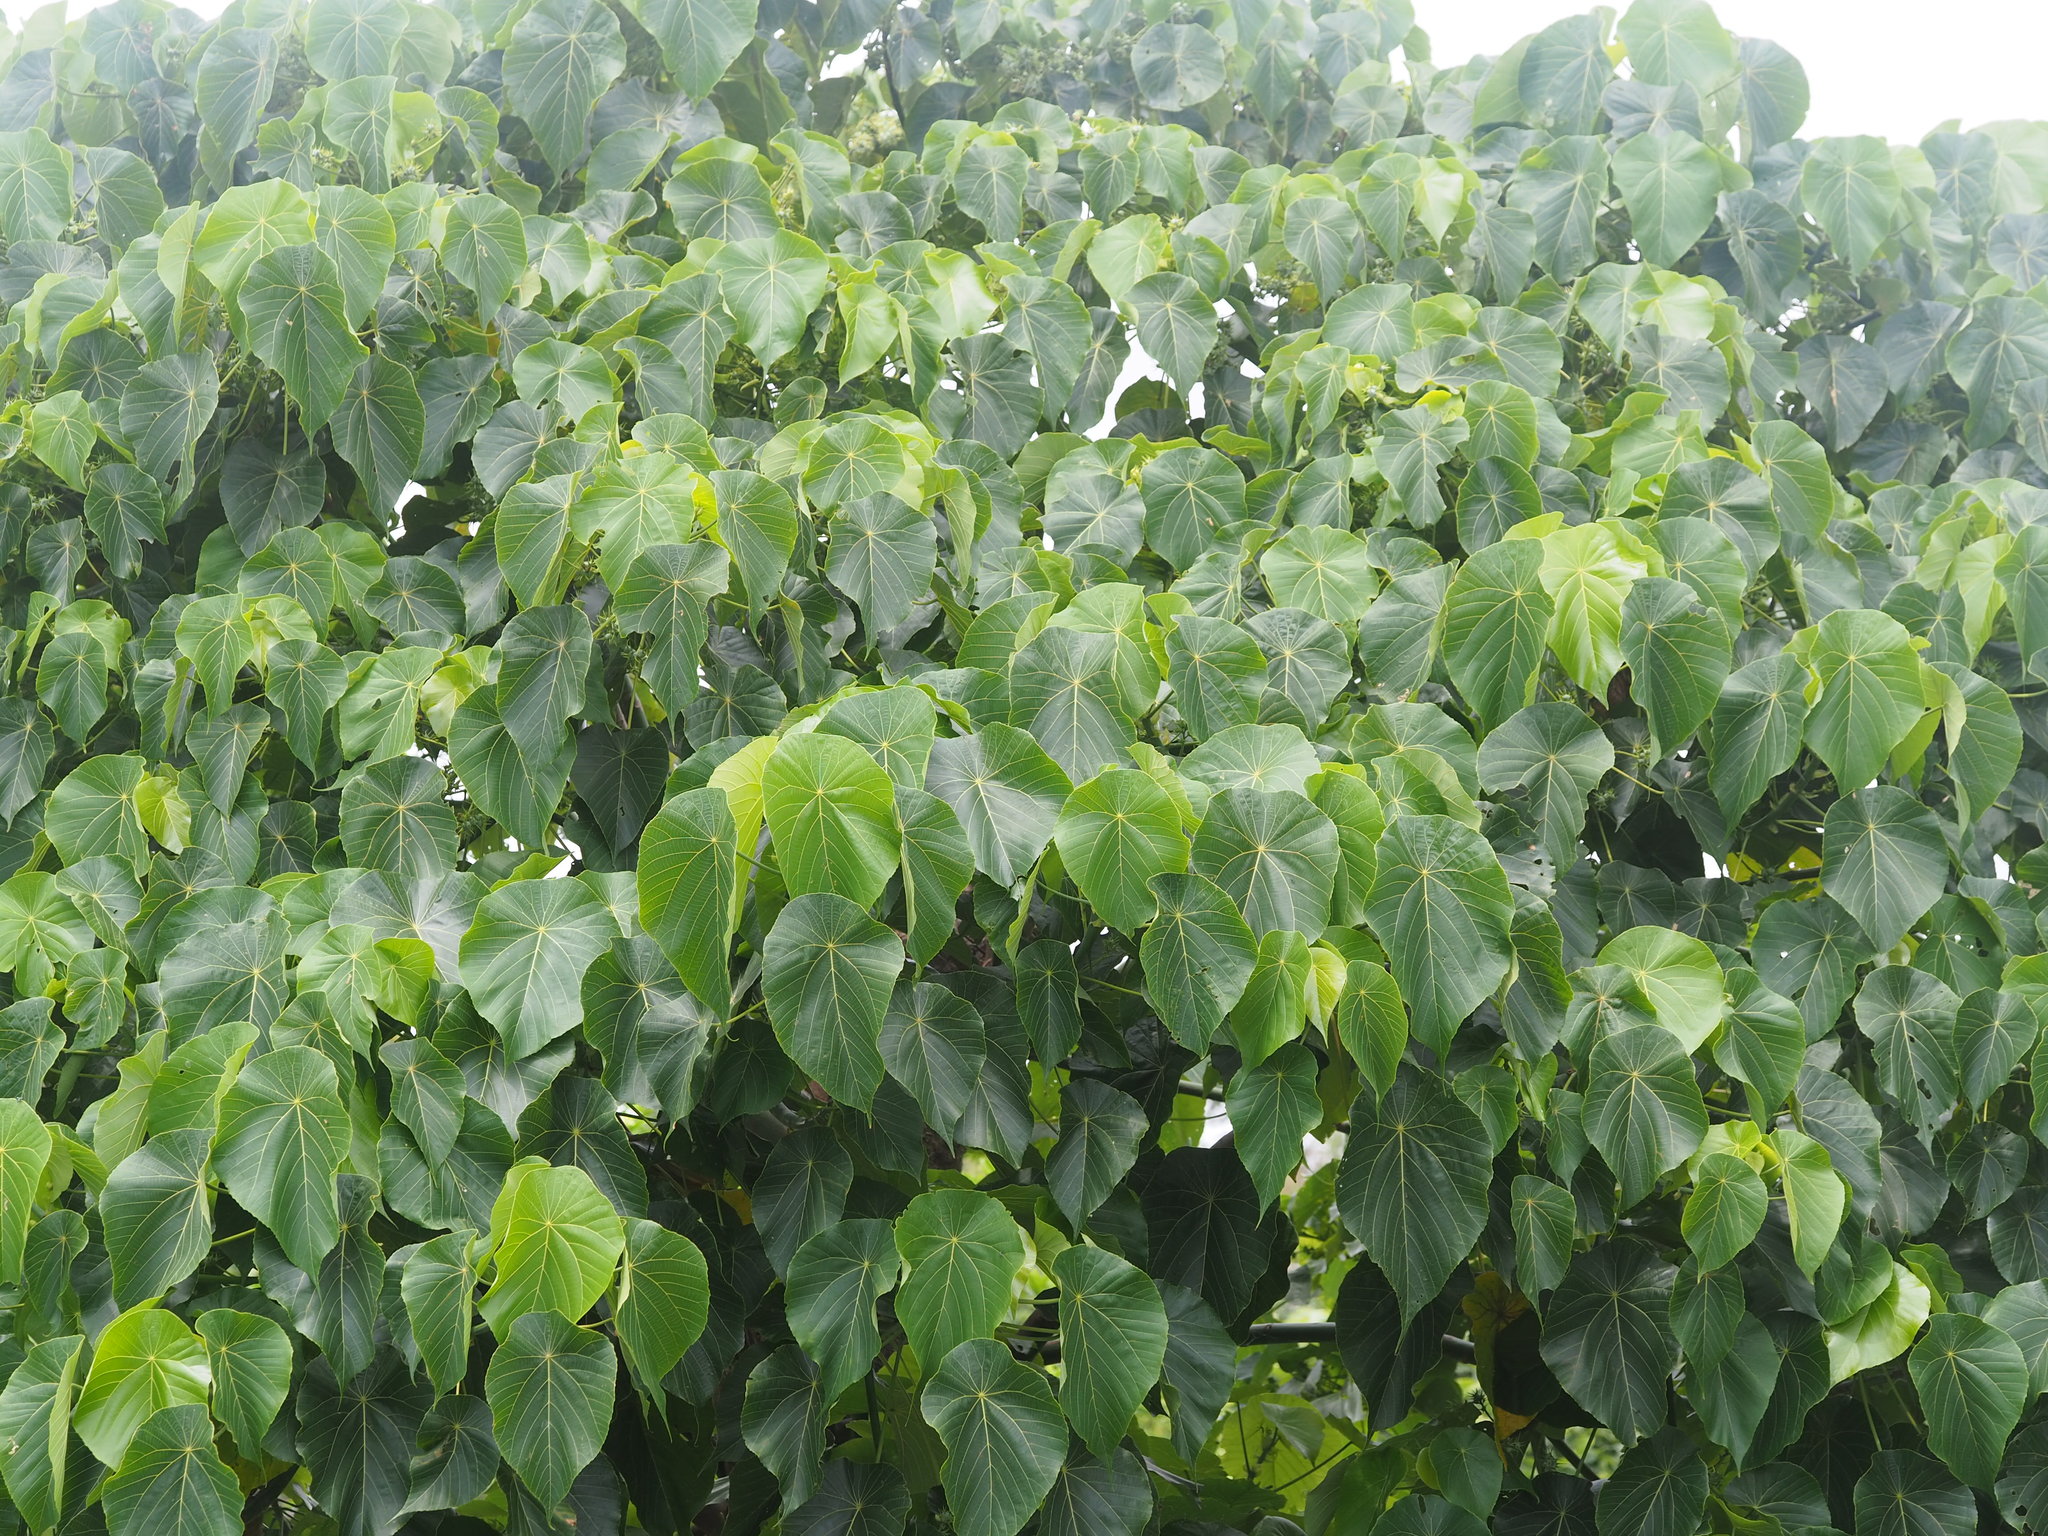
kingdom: Plantae
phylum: Tracheophyta
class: Magnoliopsida
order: Malpighiales
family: Euphorbiaceae
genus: Macaranga
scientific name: Macaranga tanarius
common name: Parasol leaf tree
